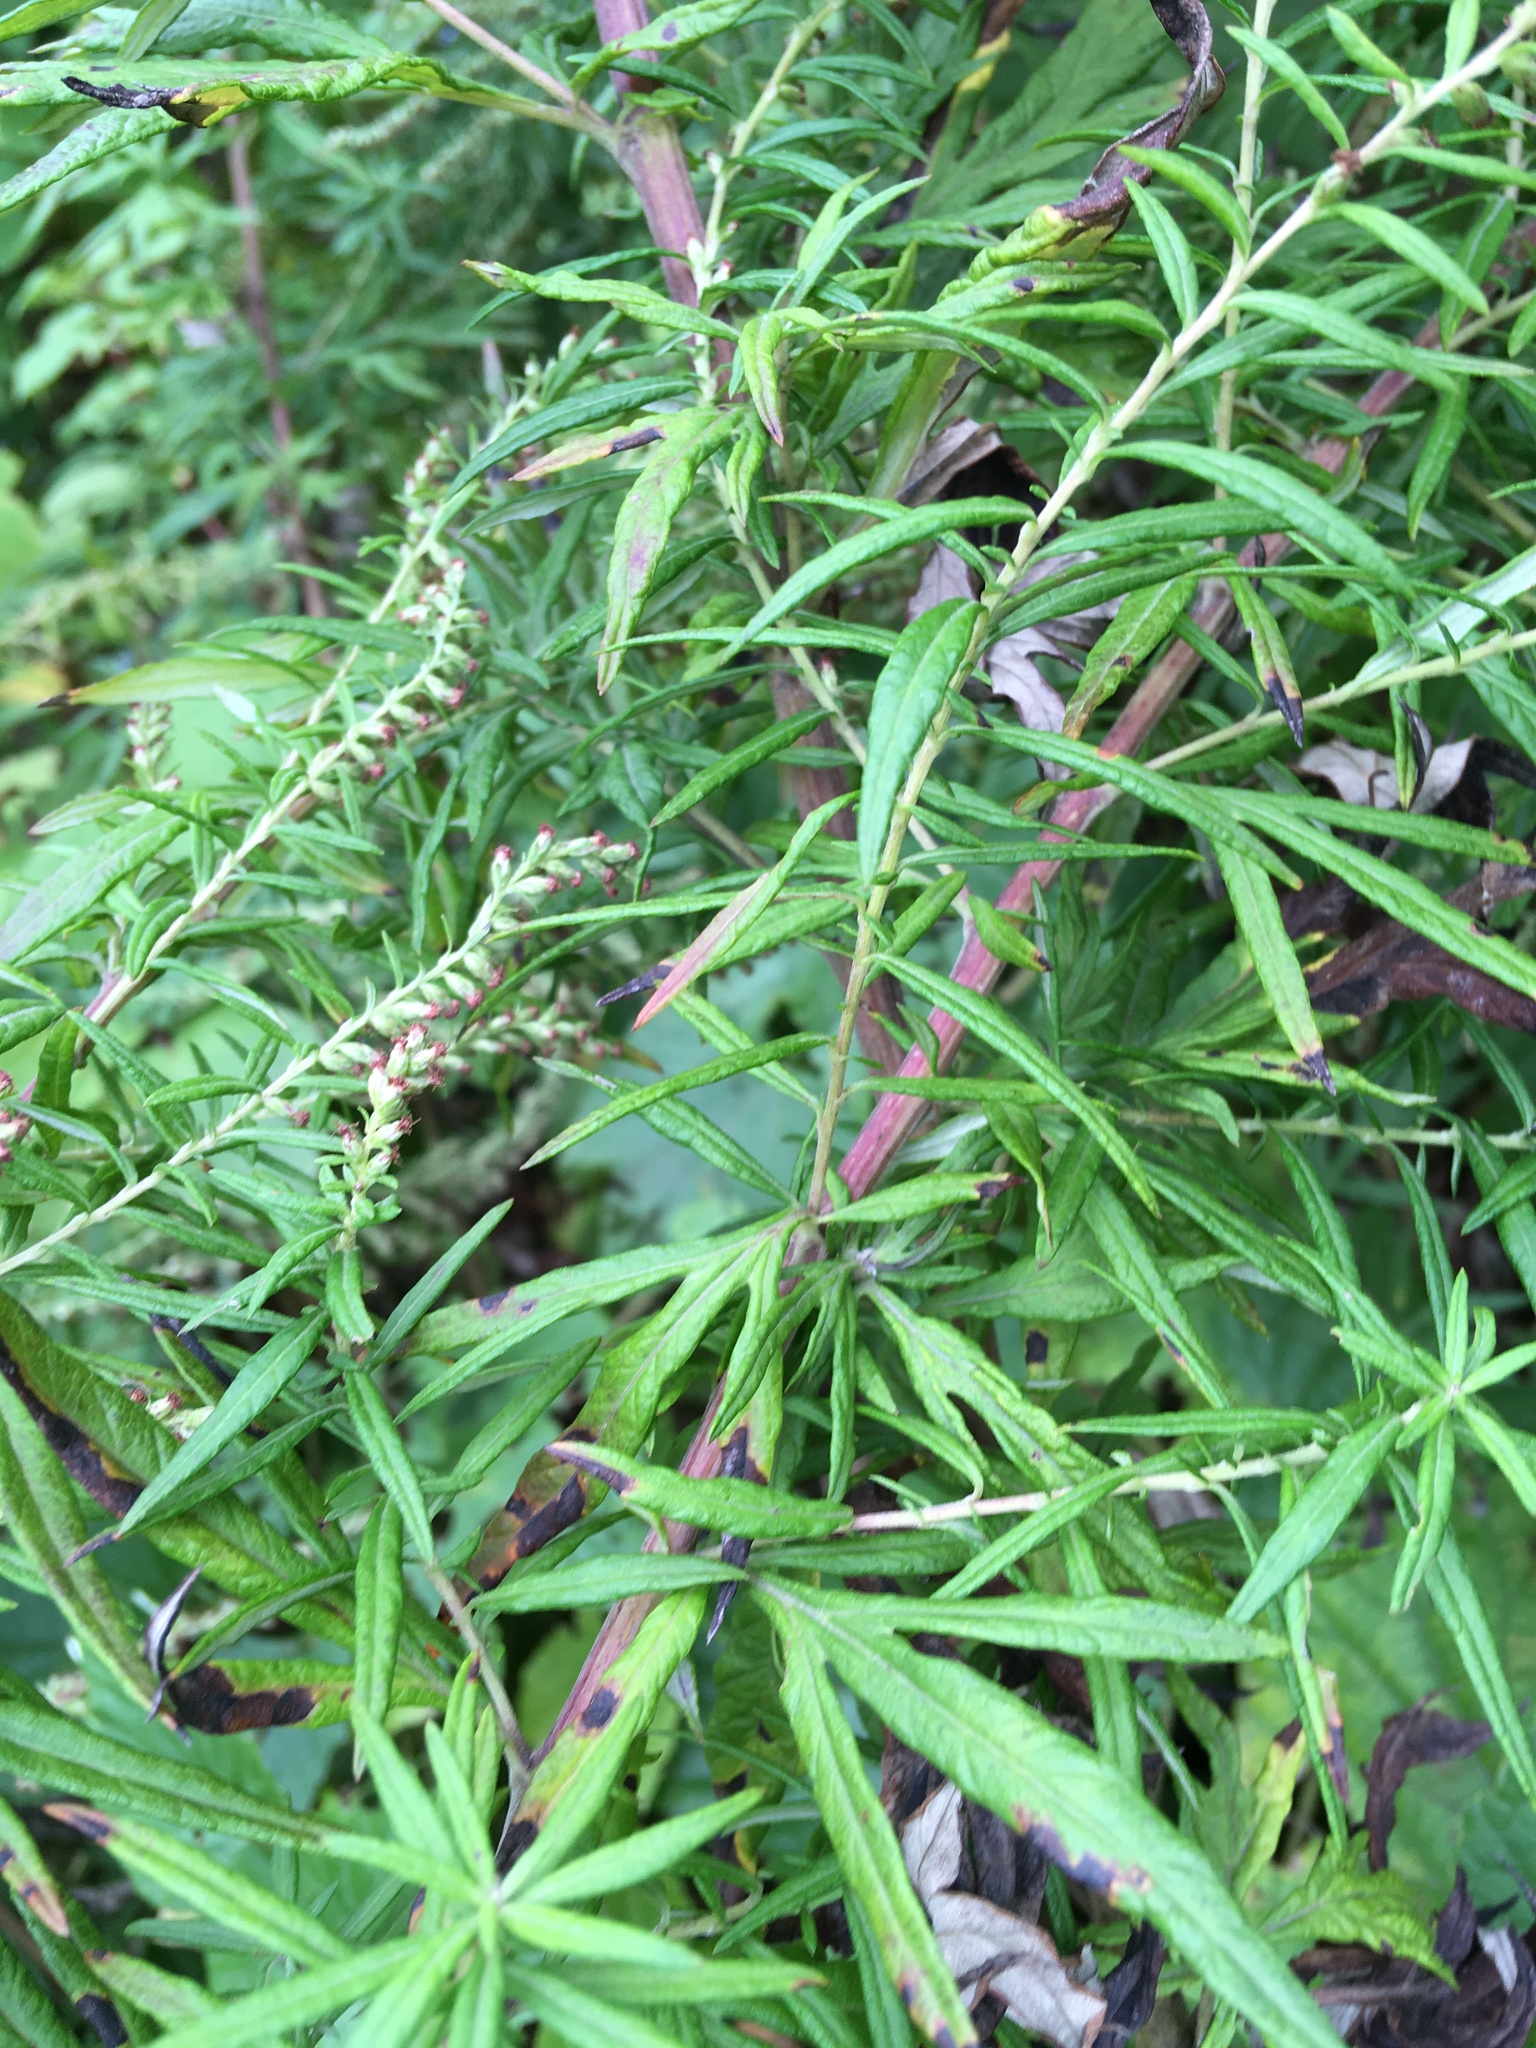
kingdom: Plantae
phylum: Tracheophyta
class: Magnoliopsida
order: Asterales
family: Asteraceae
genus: Artemisia
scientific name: Artemisia vulgaris
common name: Mugwort
